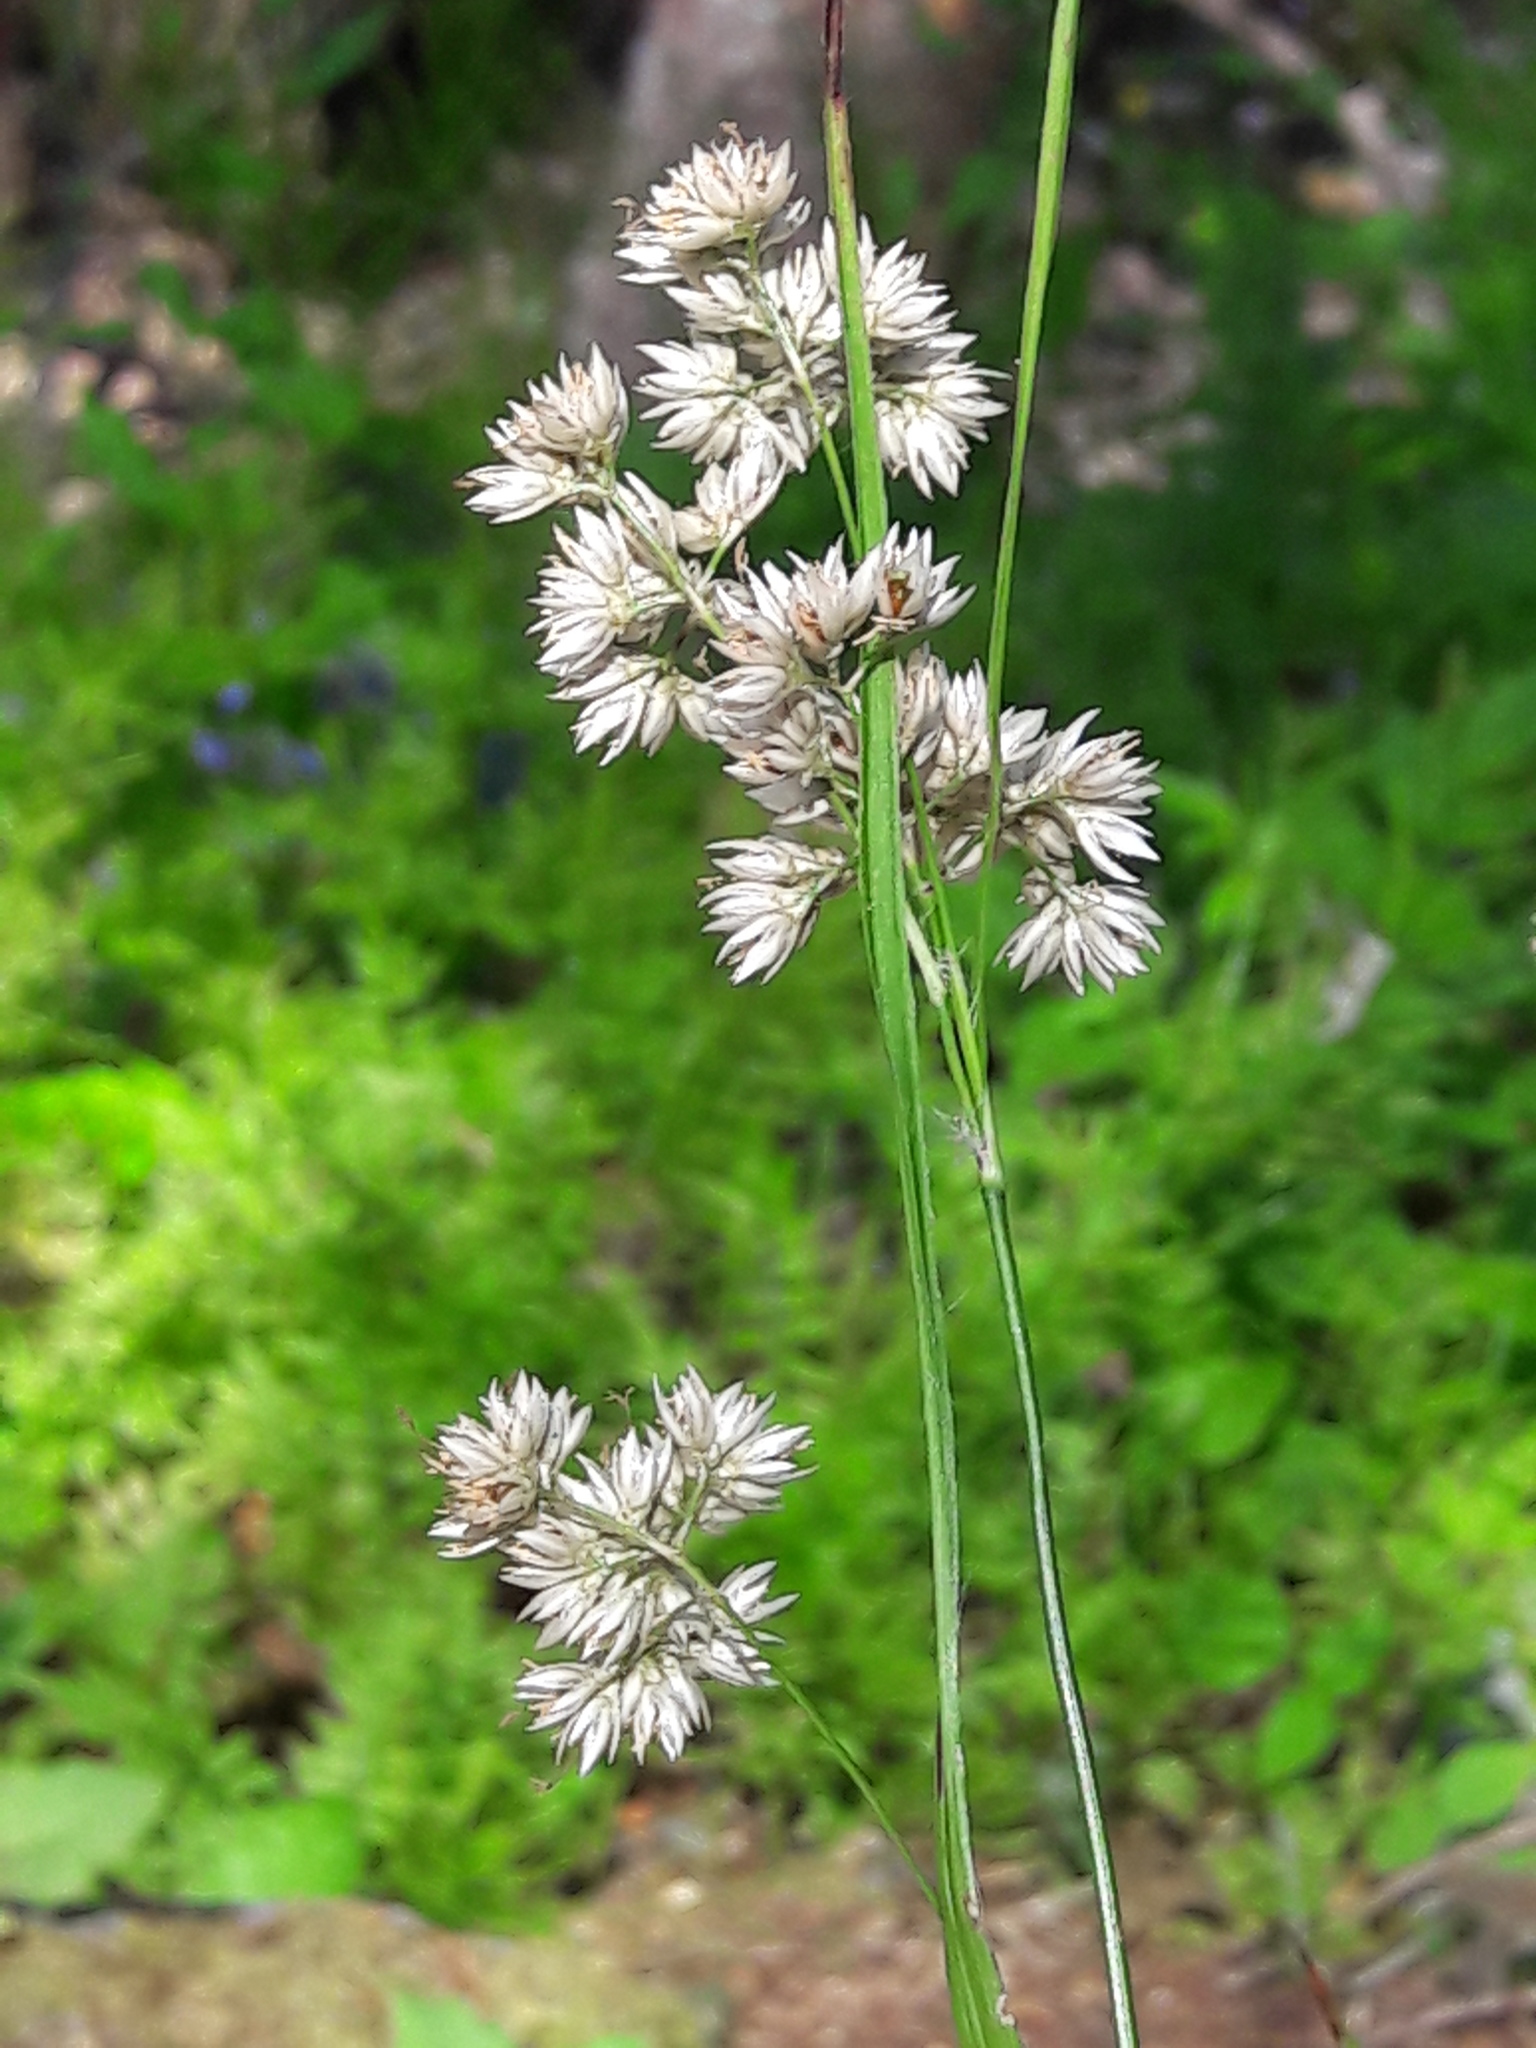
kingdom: Plantae
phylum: Tracheophyta
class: Liliopsida
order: Poales
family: Juncaceae
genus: Luzula
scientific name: Luzula nivea
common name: Snow-white wood-rush
